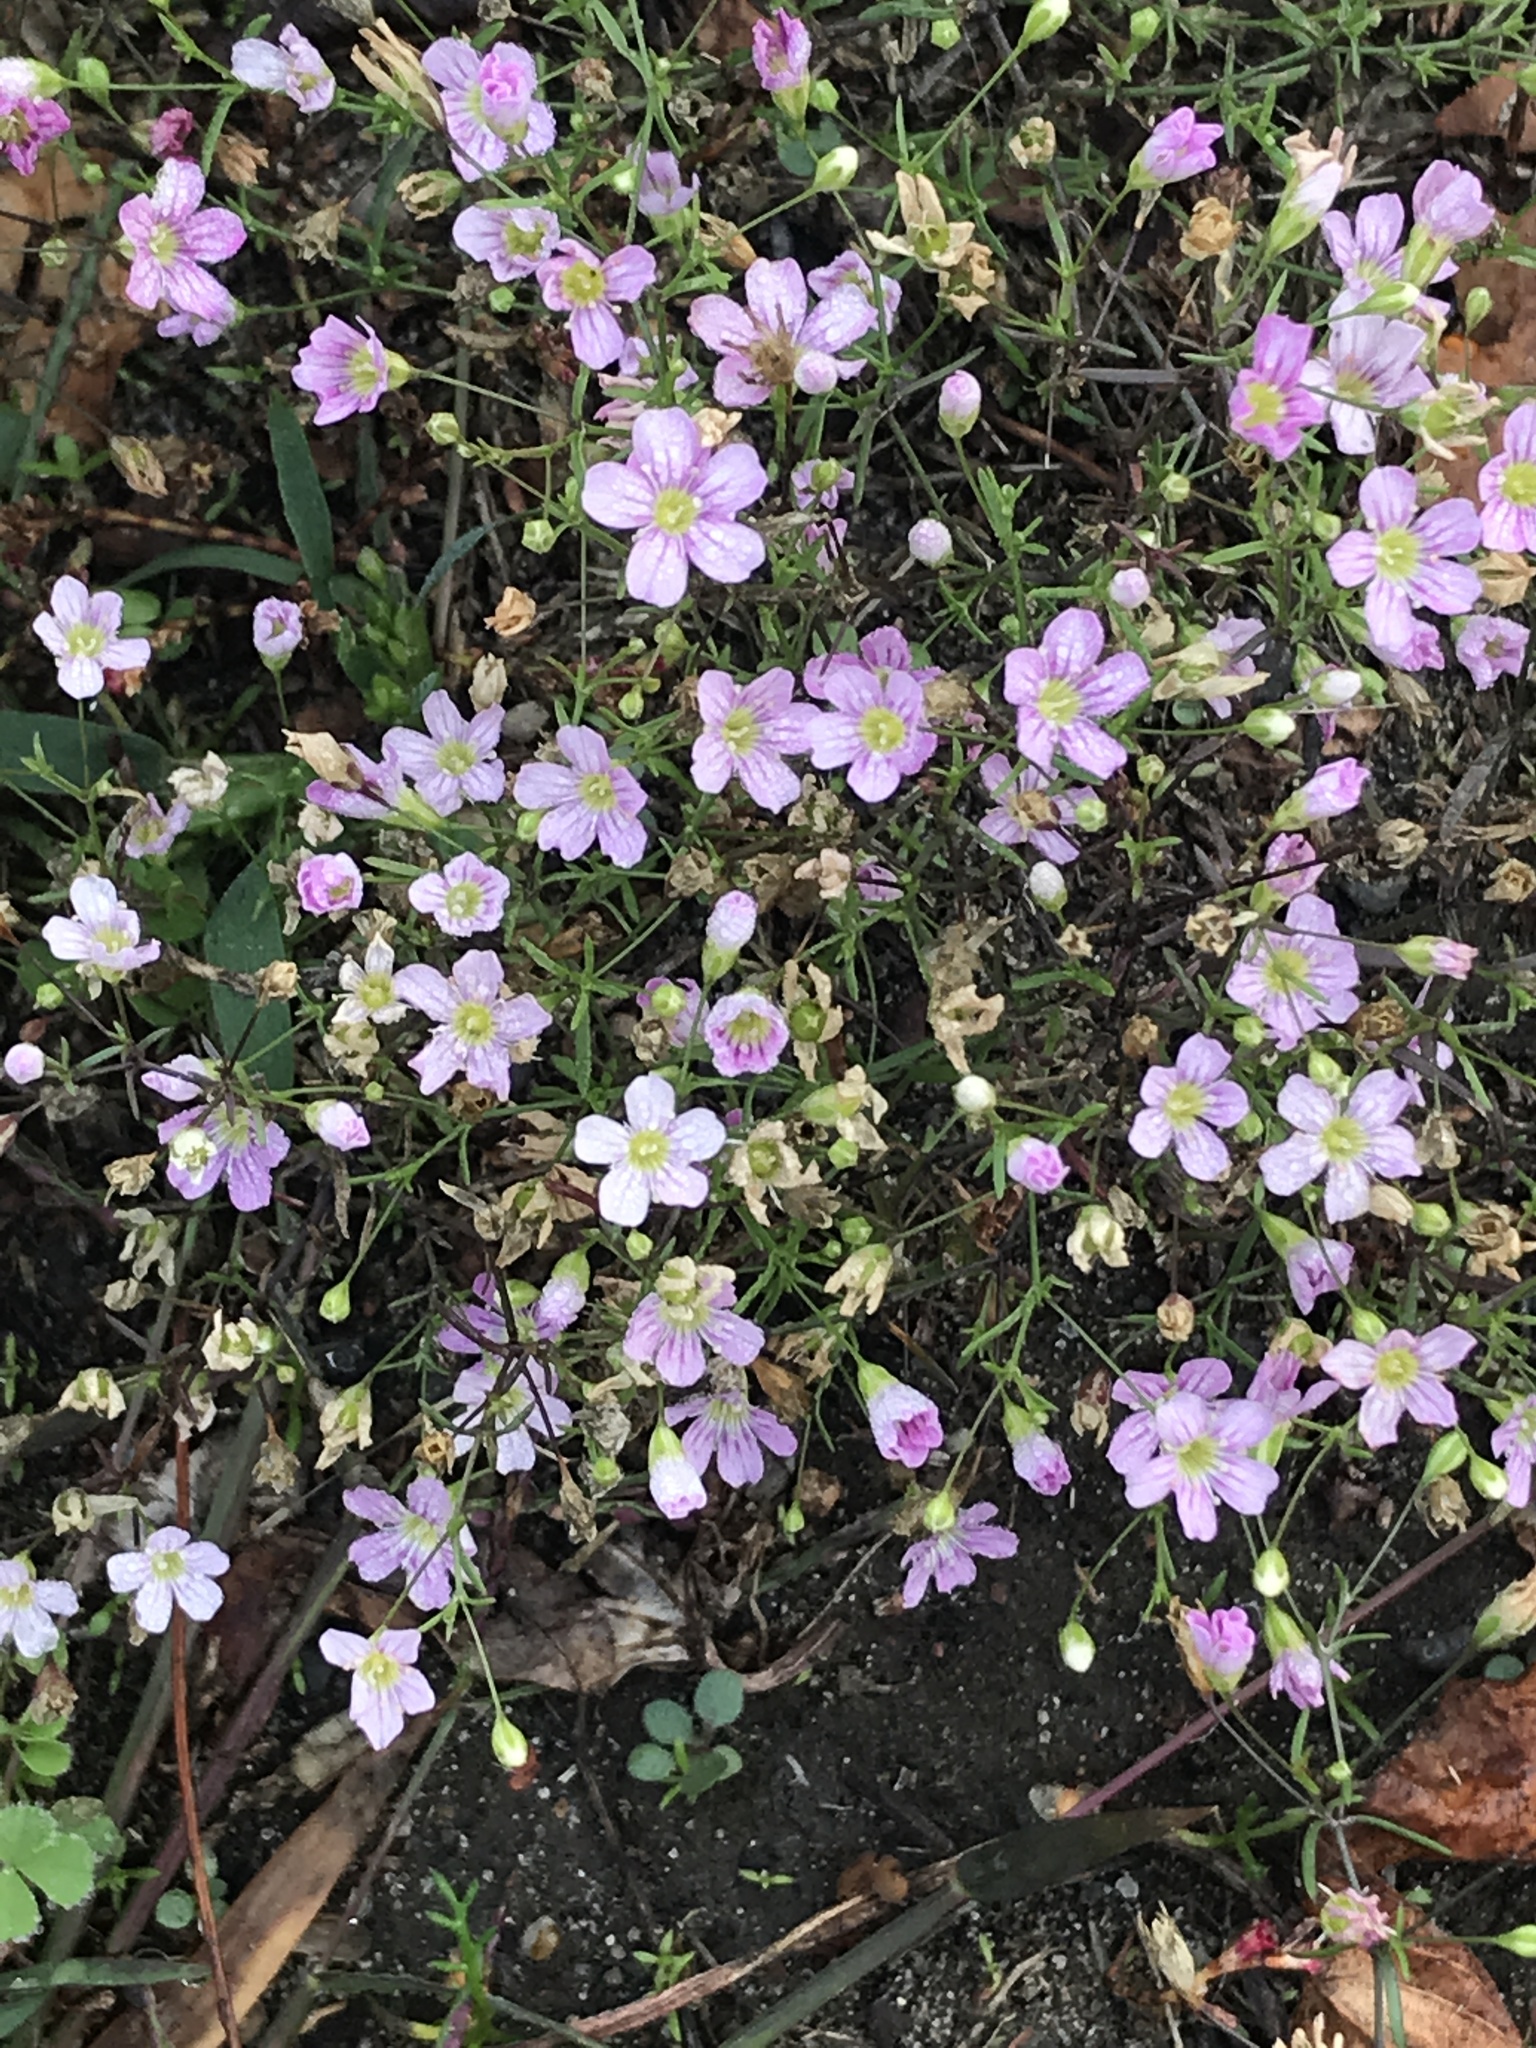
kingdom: Plantae
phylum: Tracheophyta
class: Magnoliopsida
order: Caryophyllales
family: Caryophyllaceae
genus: Psammophiliella
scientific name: Psammophiliella muralis
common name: Cushion baby's-breath
